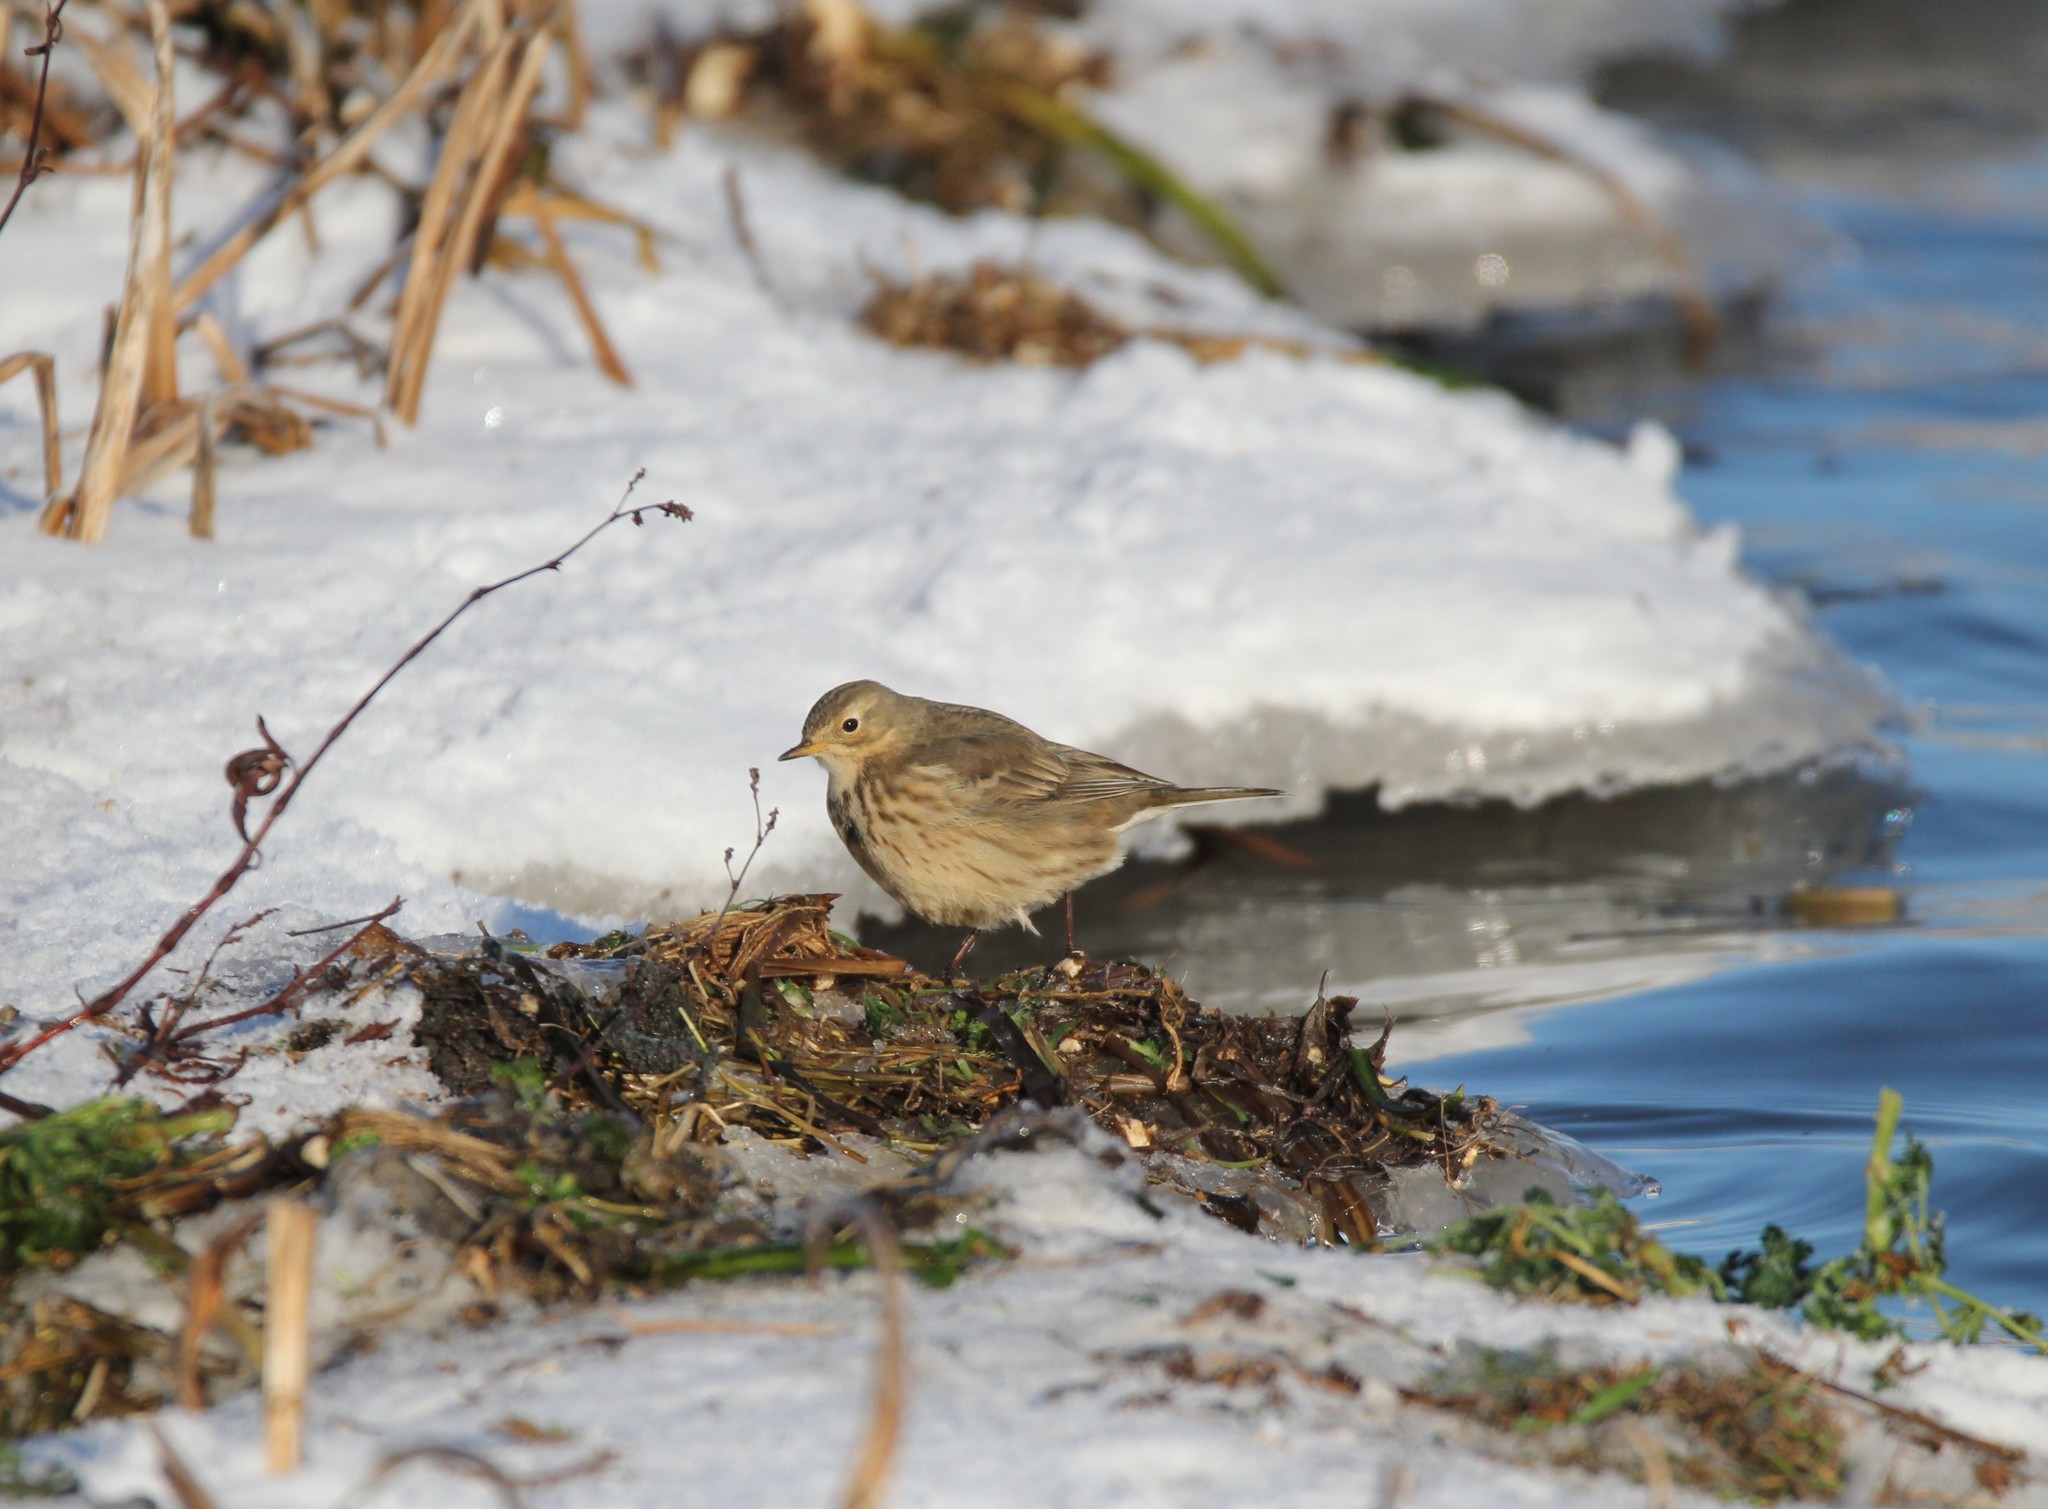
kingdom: Animalia
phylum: Chordata
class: Aves
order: Passeriformes
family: Motacillidae
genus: Anthus
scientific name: Anthus rubescens
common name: Buff-bellied pipit
